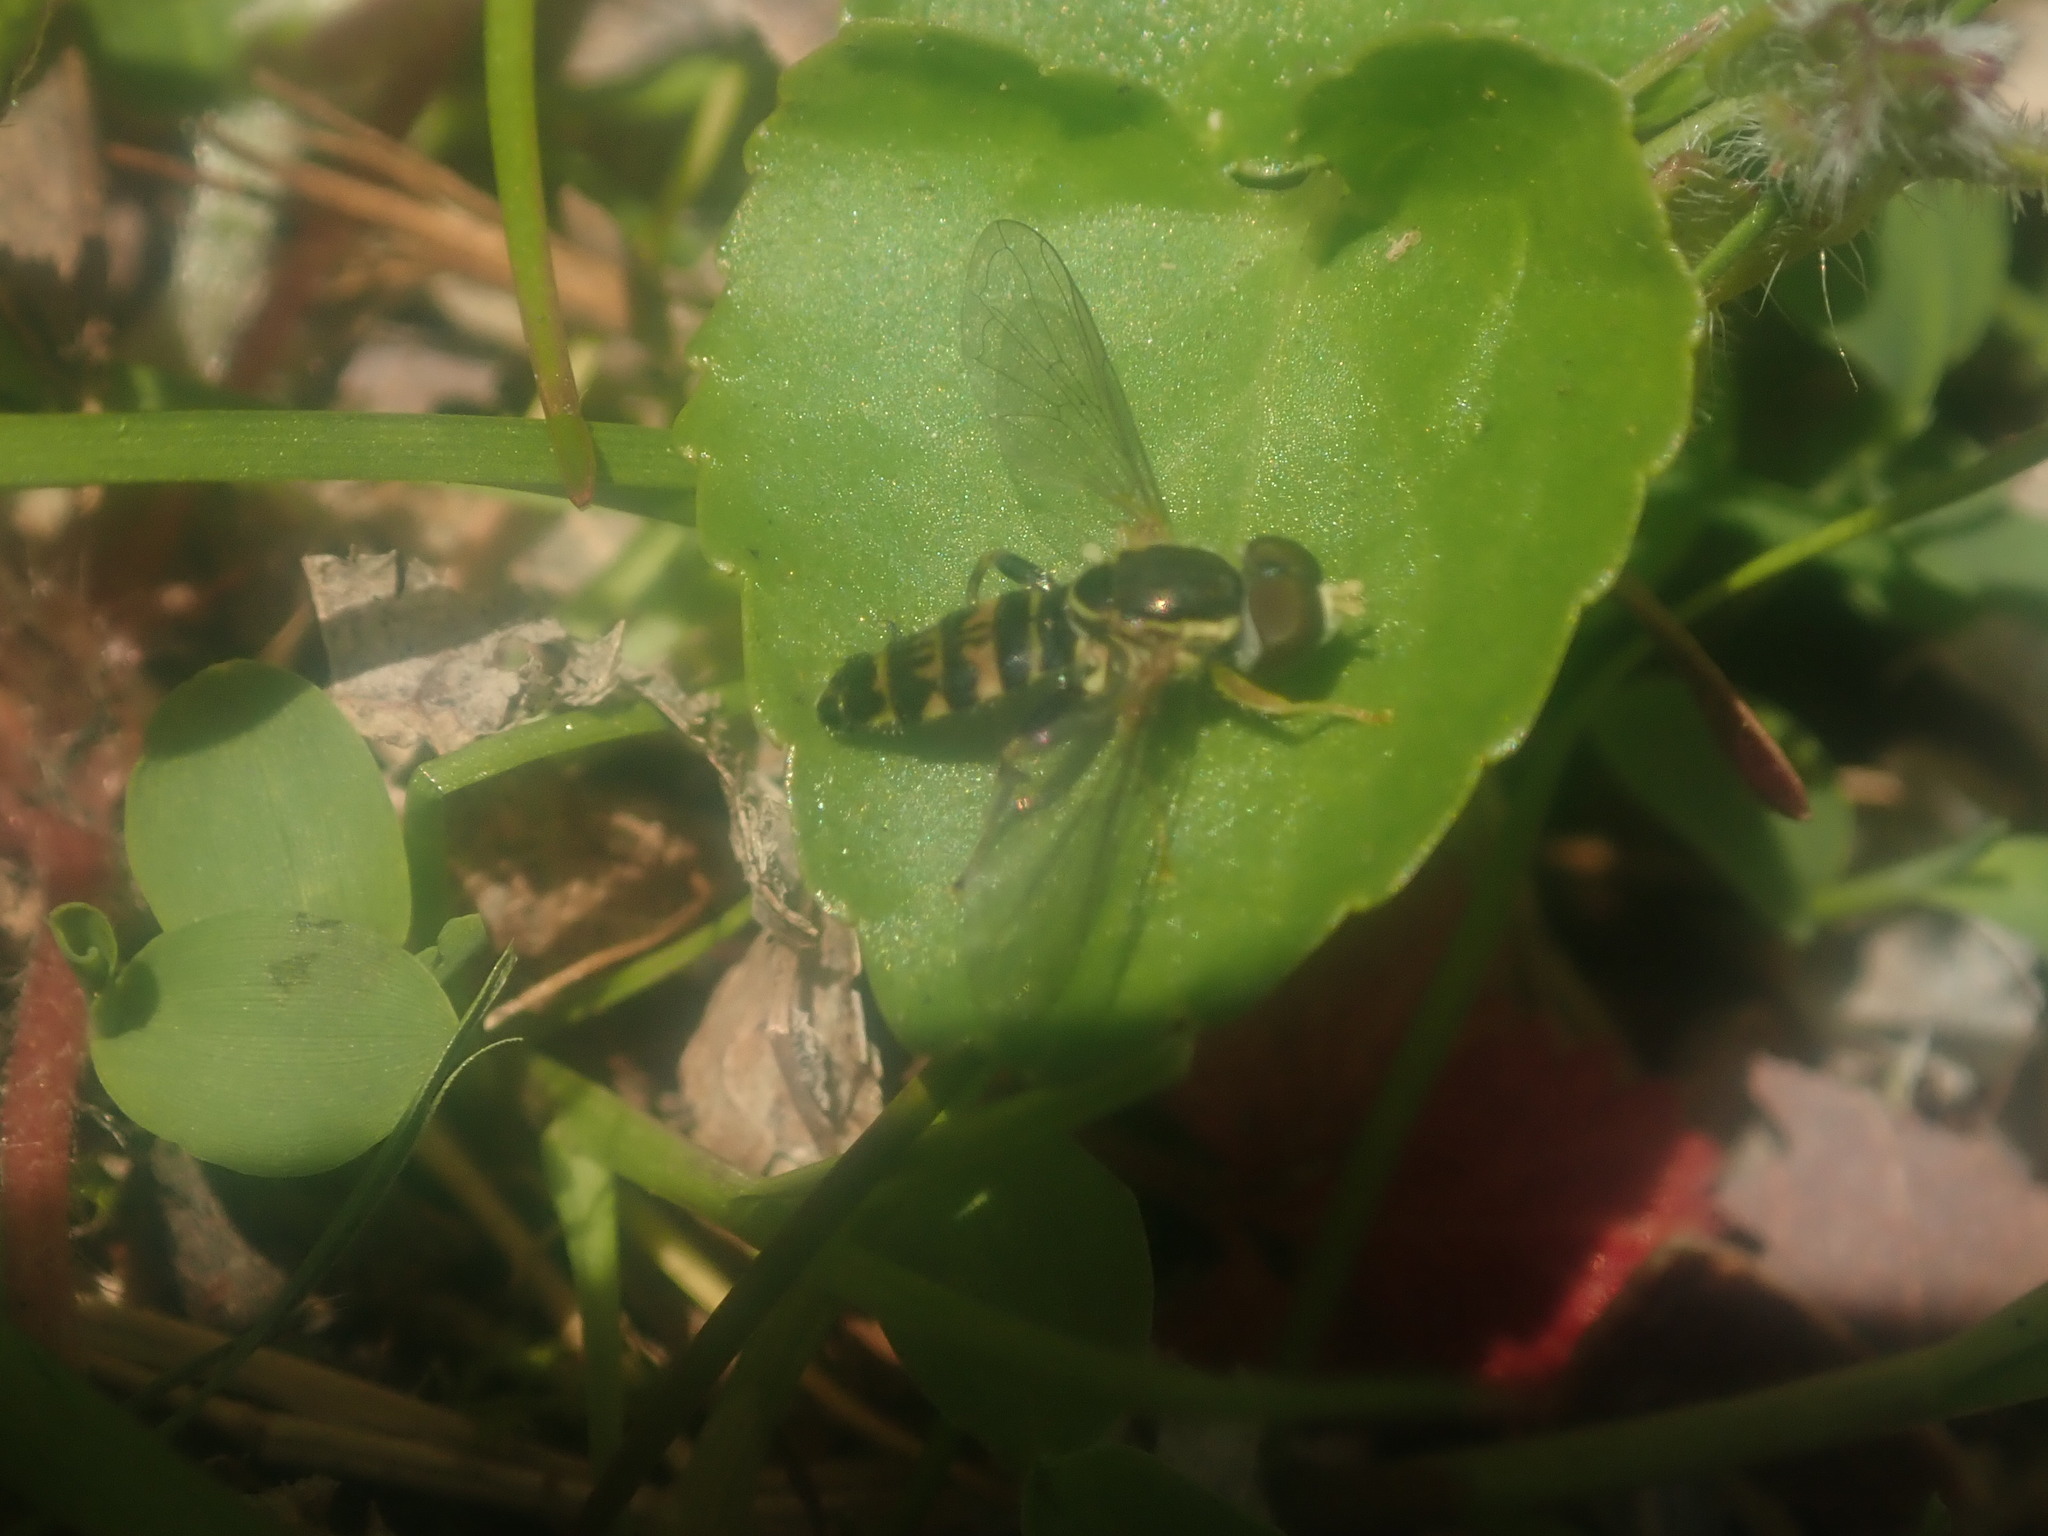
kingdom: Animalia
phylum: Arthropoda
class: Insecta
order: Diptera
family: Syrphidae
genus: Toxomerus
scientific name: Toxomerus geminatus
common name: Eastern calligrapher
